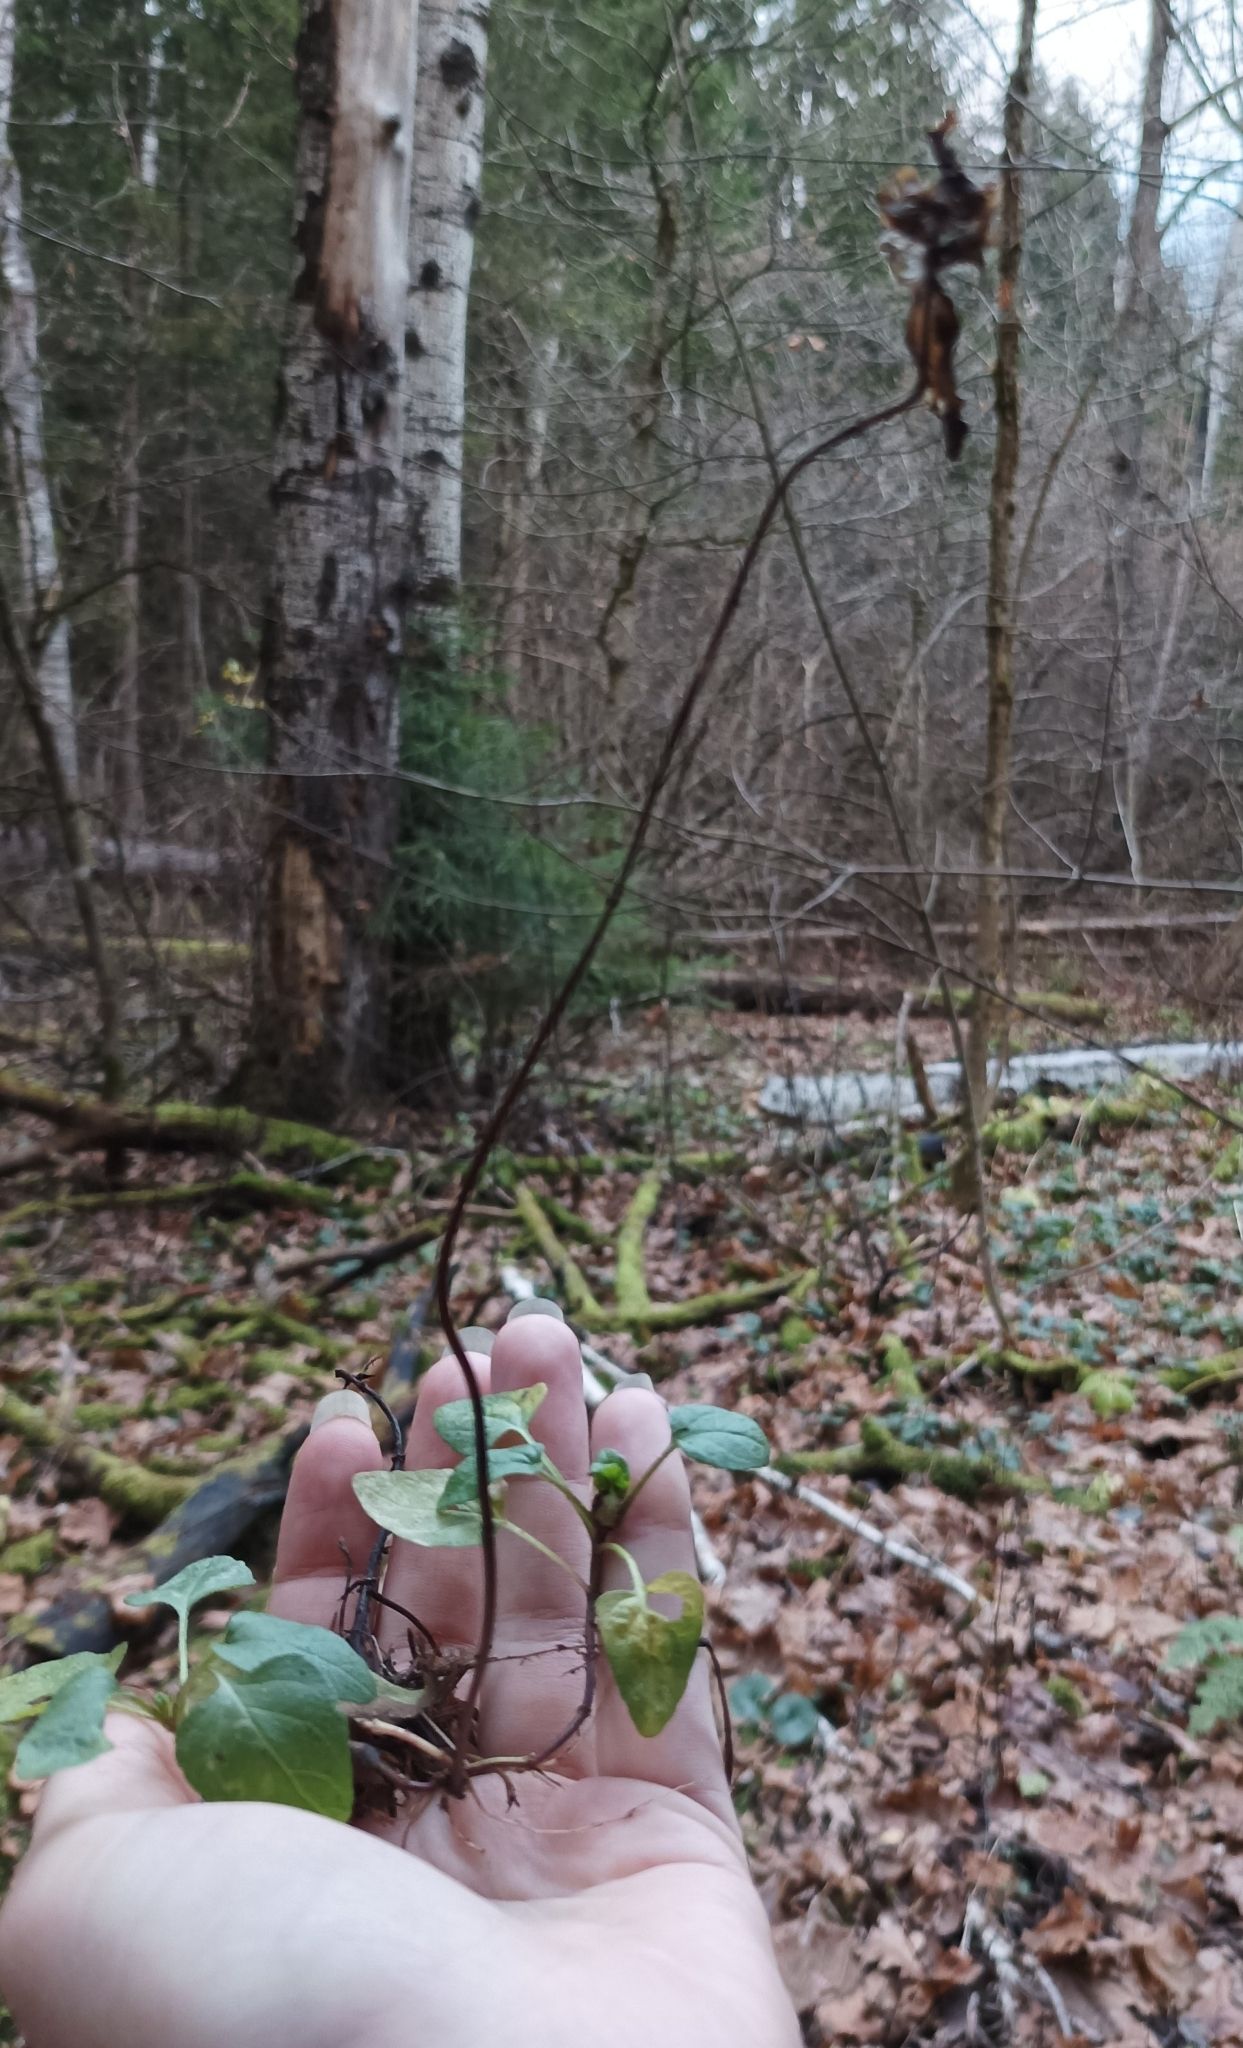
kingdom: Plantae
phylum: Tracheophyta
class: Magnoliopsida
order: Lamiales
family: Lamiaceae
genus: Prunella
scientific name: Prunella vulgaris
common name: Heal-all
